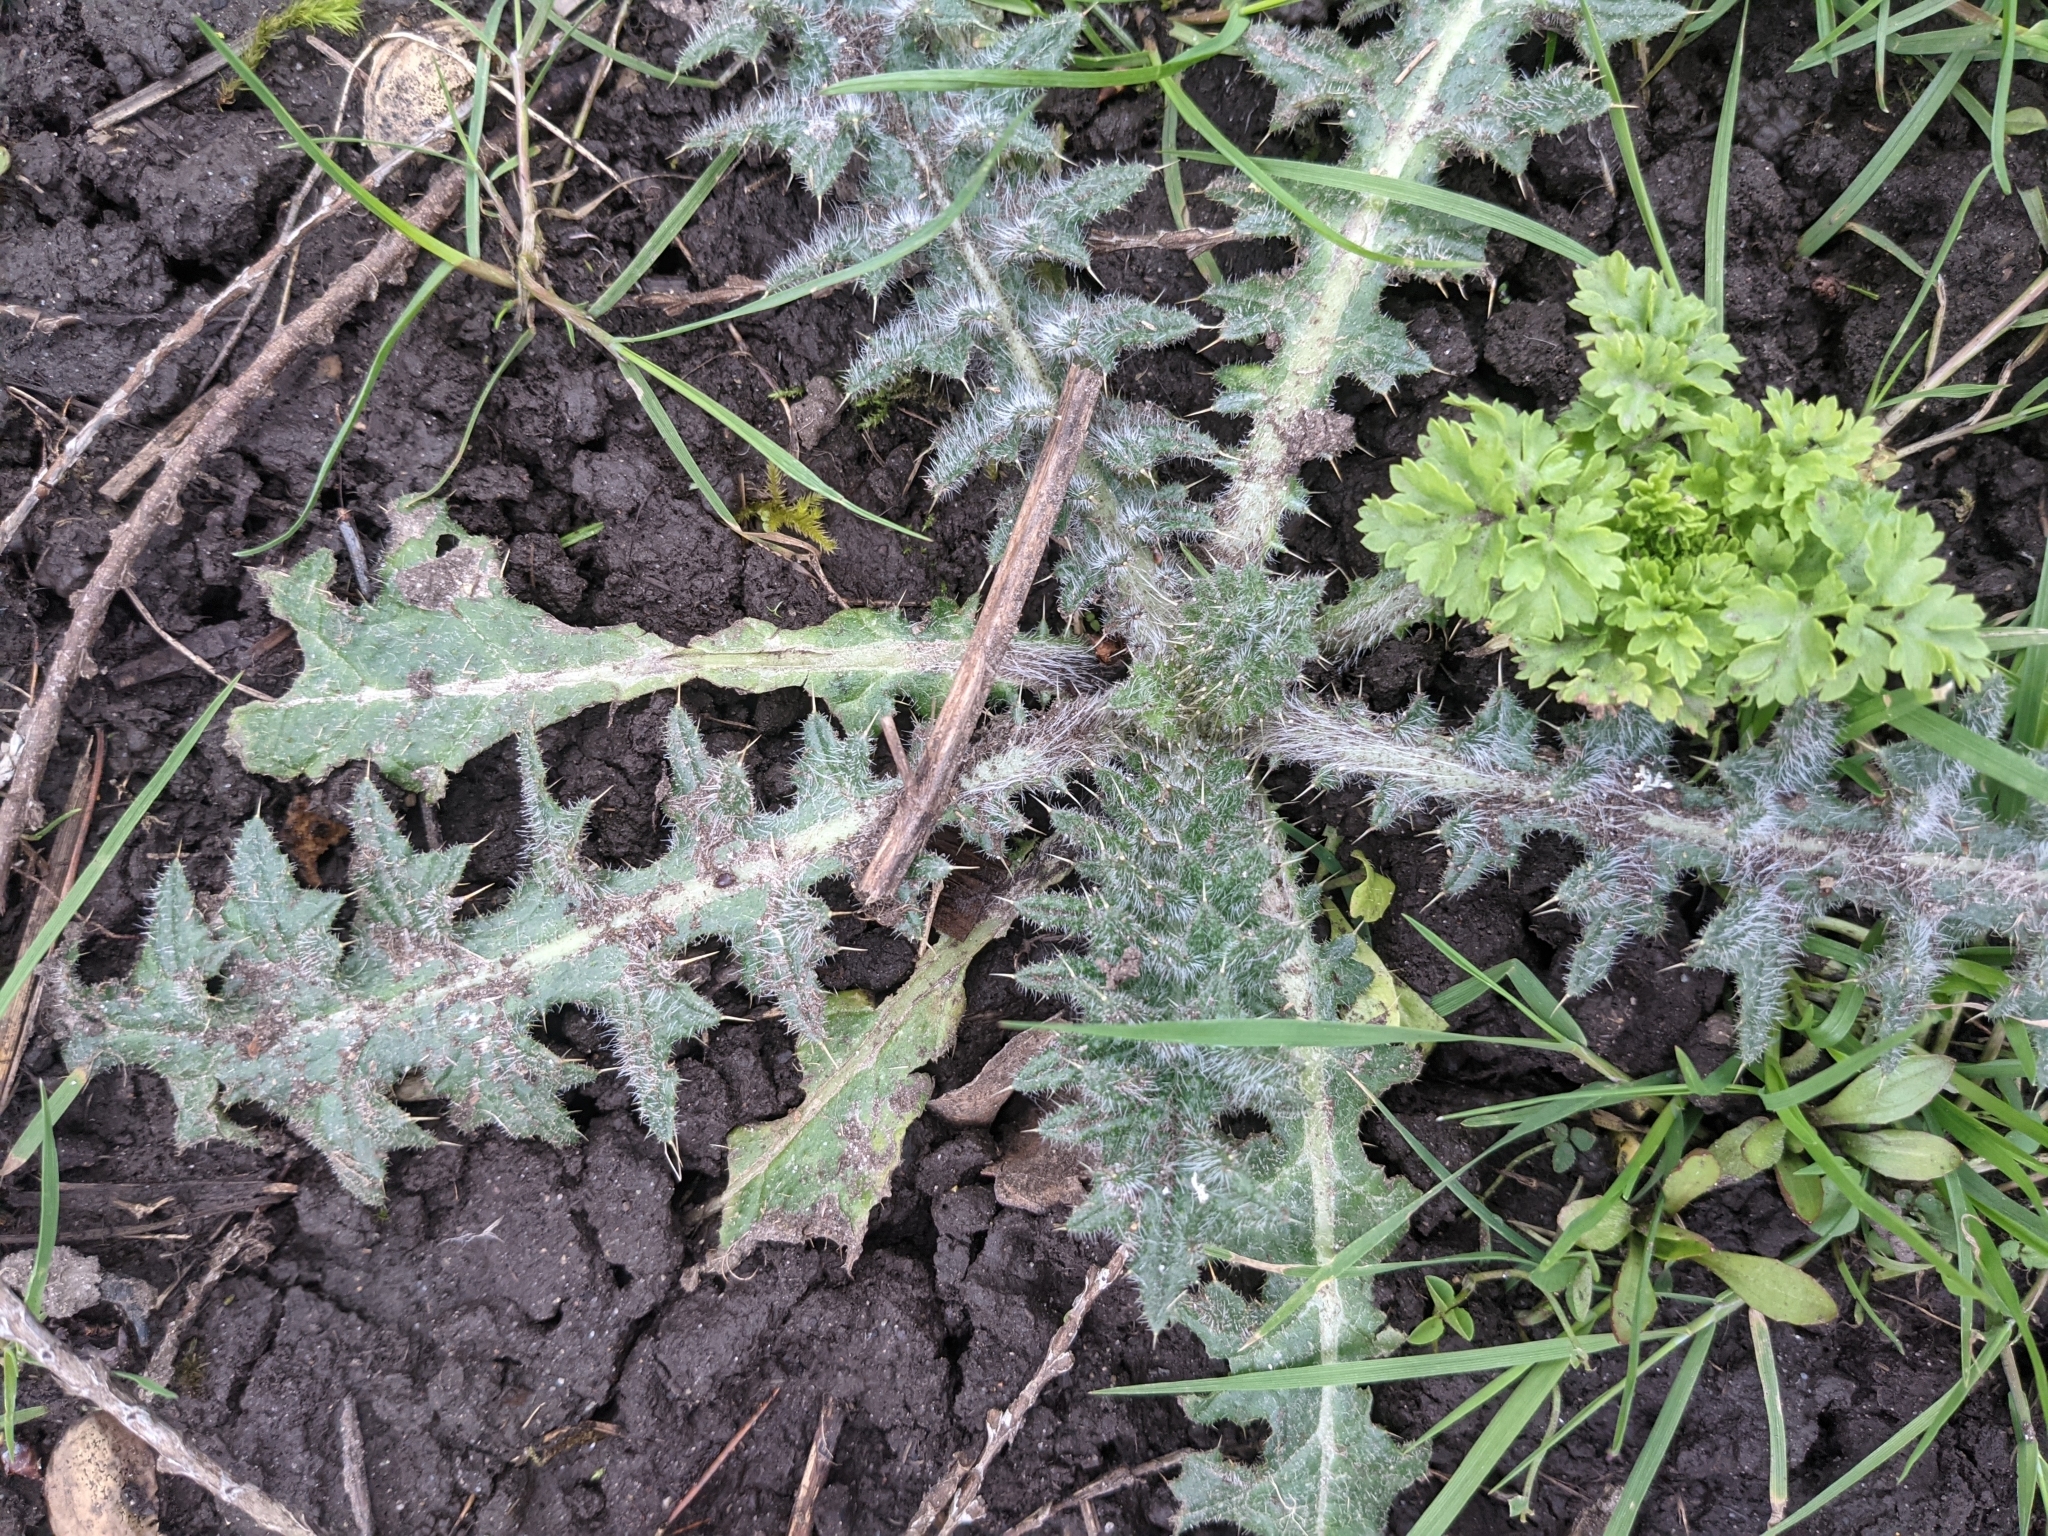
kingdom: Plantae
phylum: Tracheophyta
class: Magnoliopsida
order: Asterales
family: Asteraceae
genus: Cirsium
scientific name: Cirsium vulgare
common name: Bull thistle
